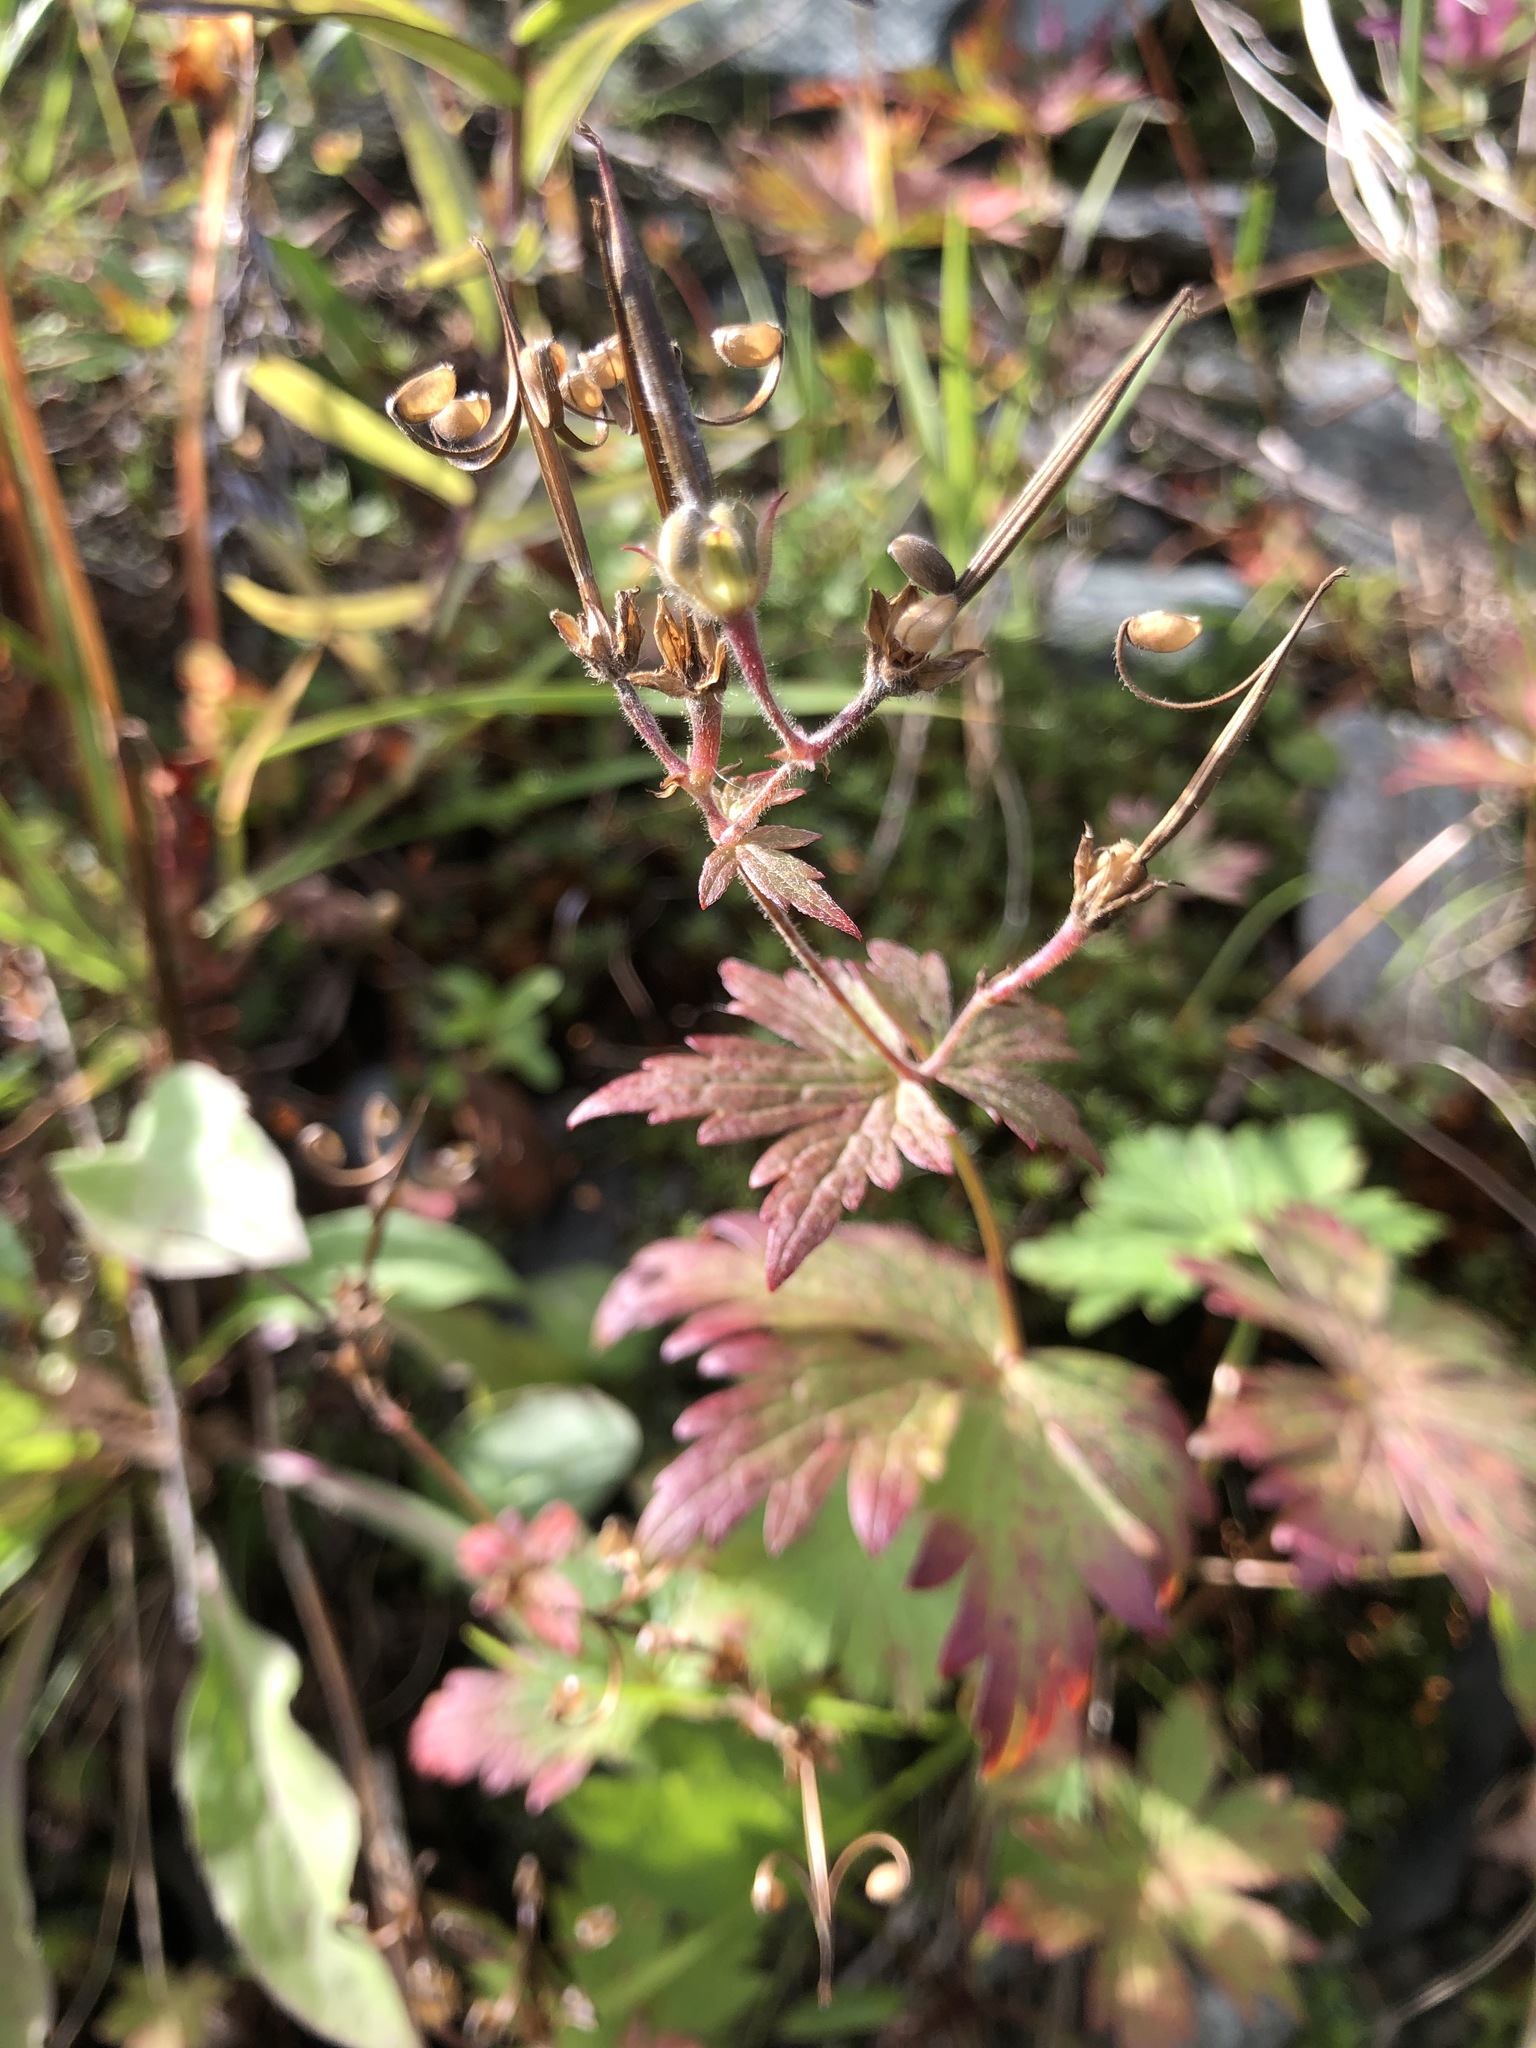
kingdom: Plantae
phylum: Tracheophyta
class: Magnoliopsida
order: Geraniales
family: Geraniaceae
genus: Geranium
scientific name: Geranium sylvaticum
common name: Wood crane's-bill
